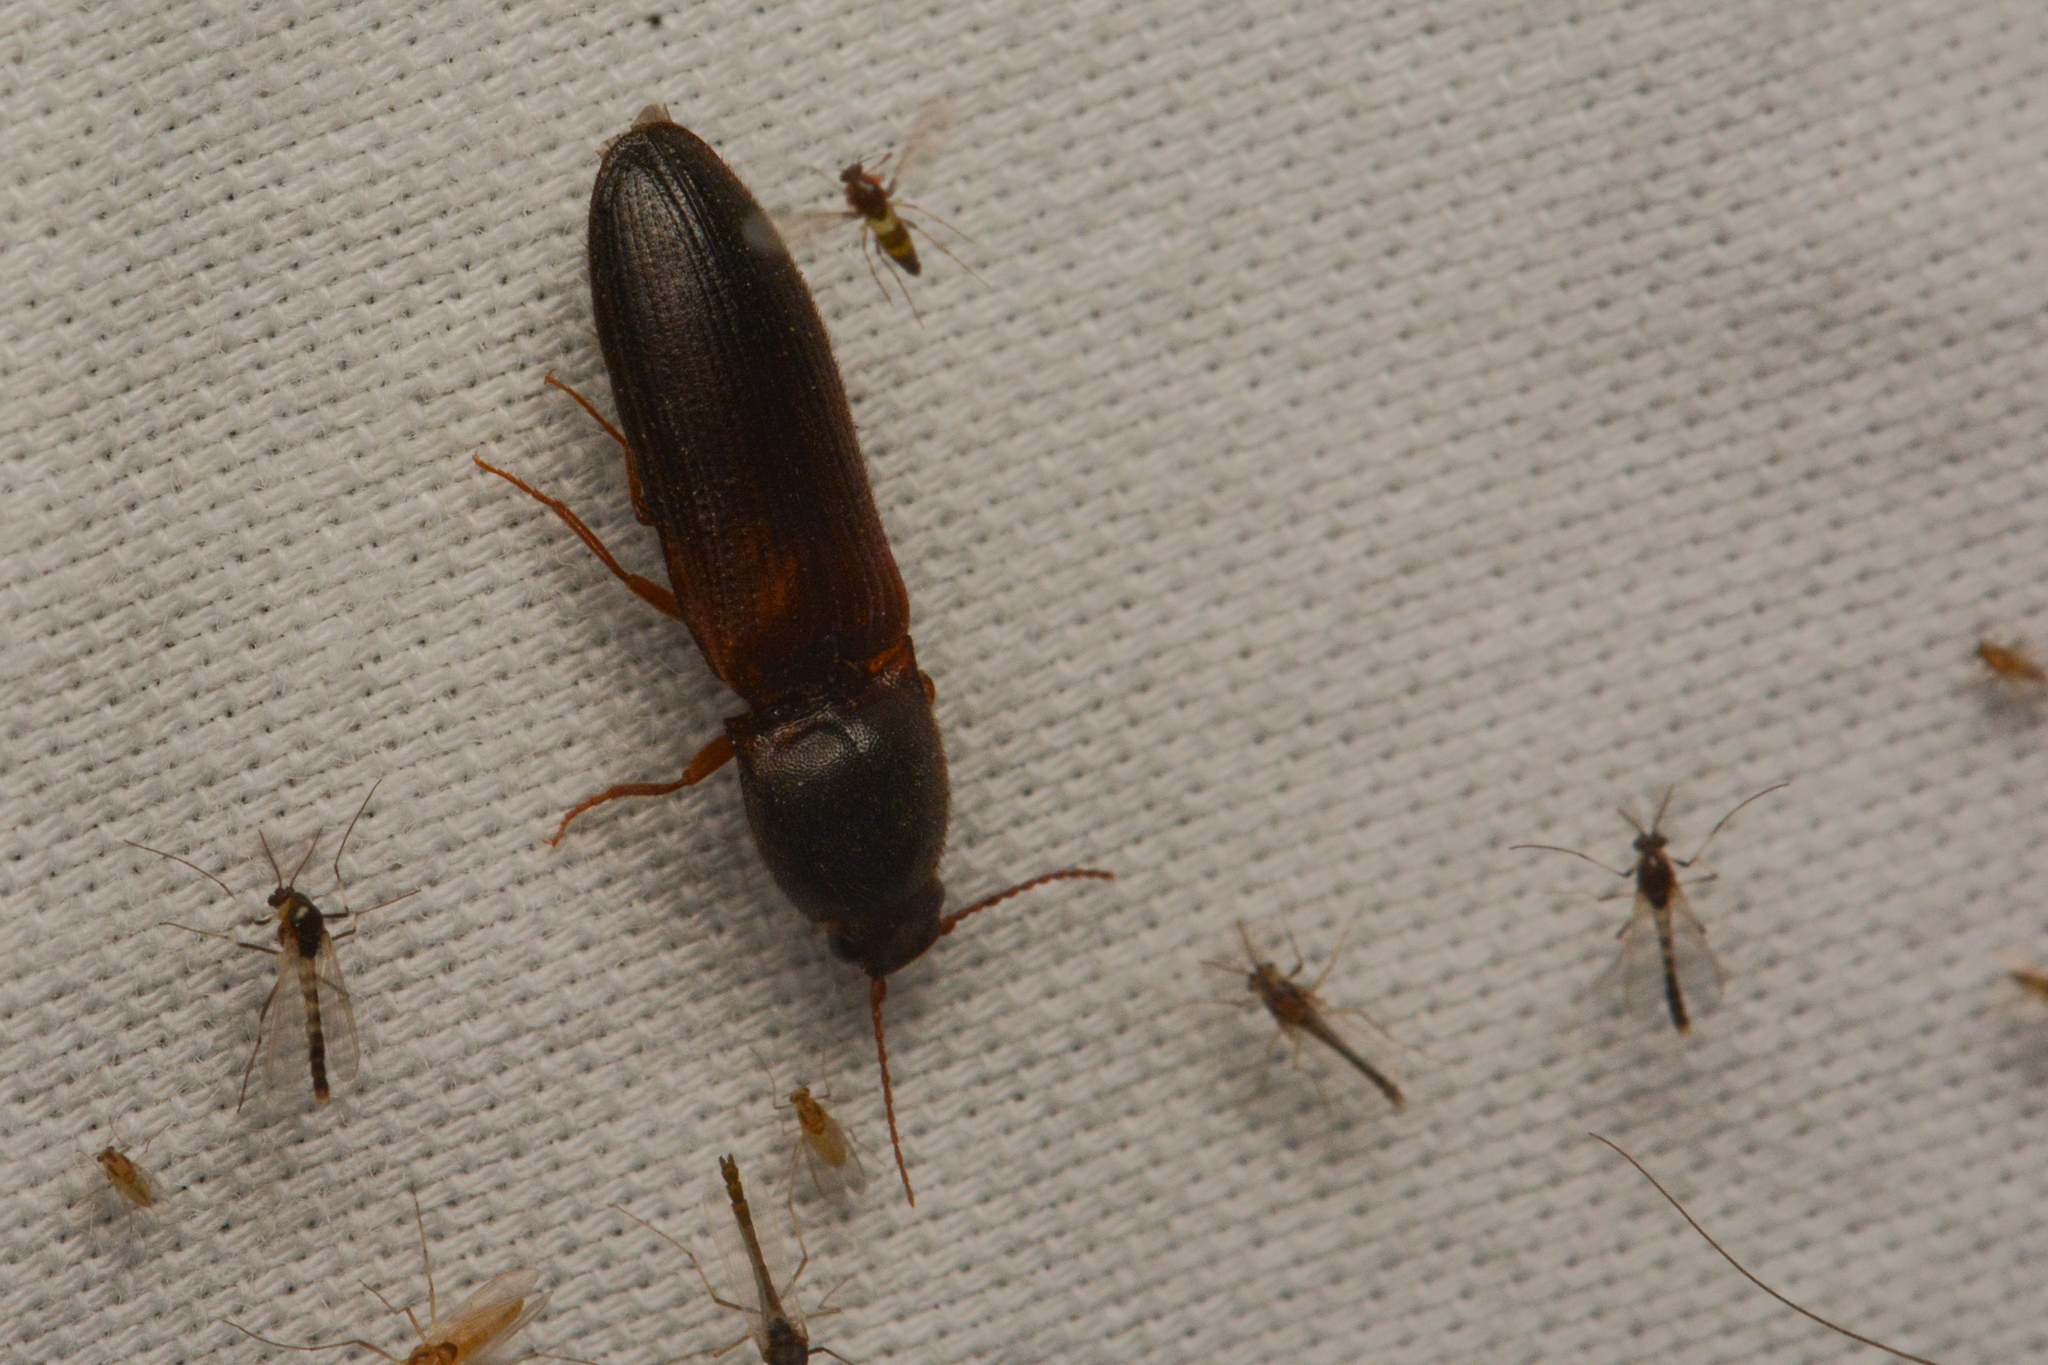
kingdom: Animalia
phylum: Arthropoda
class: Insecta
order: Coleoptera
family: Elateridae
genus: Elathous
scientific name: Elathous
